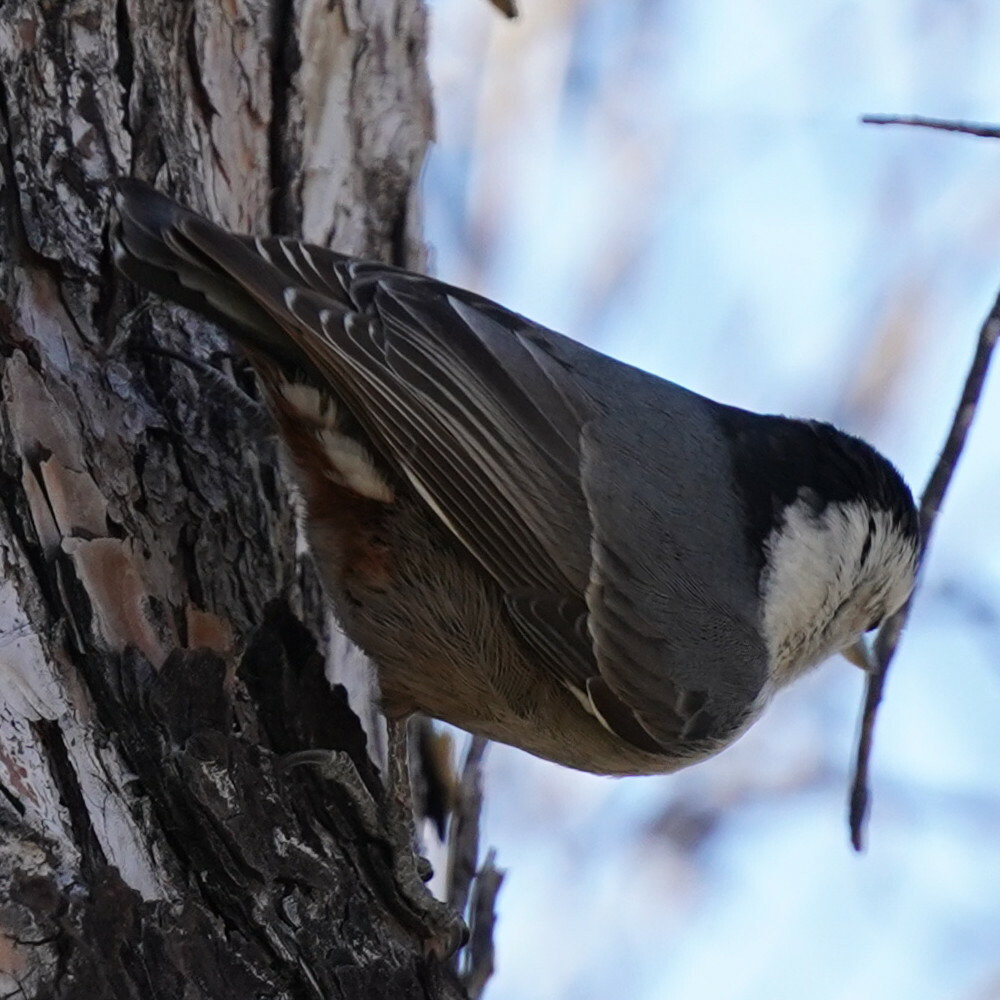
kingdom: Animalia
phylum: Chordata
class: Aves
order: Passeriformes
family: Sittidae
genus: Sitta
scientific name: Sitta carolinensis
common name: White-breasted nuthatch
